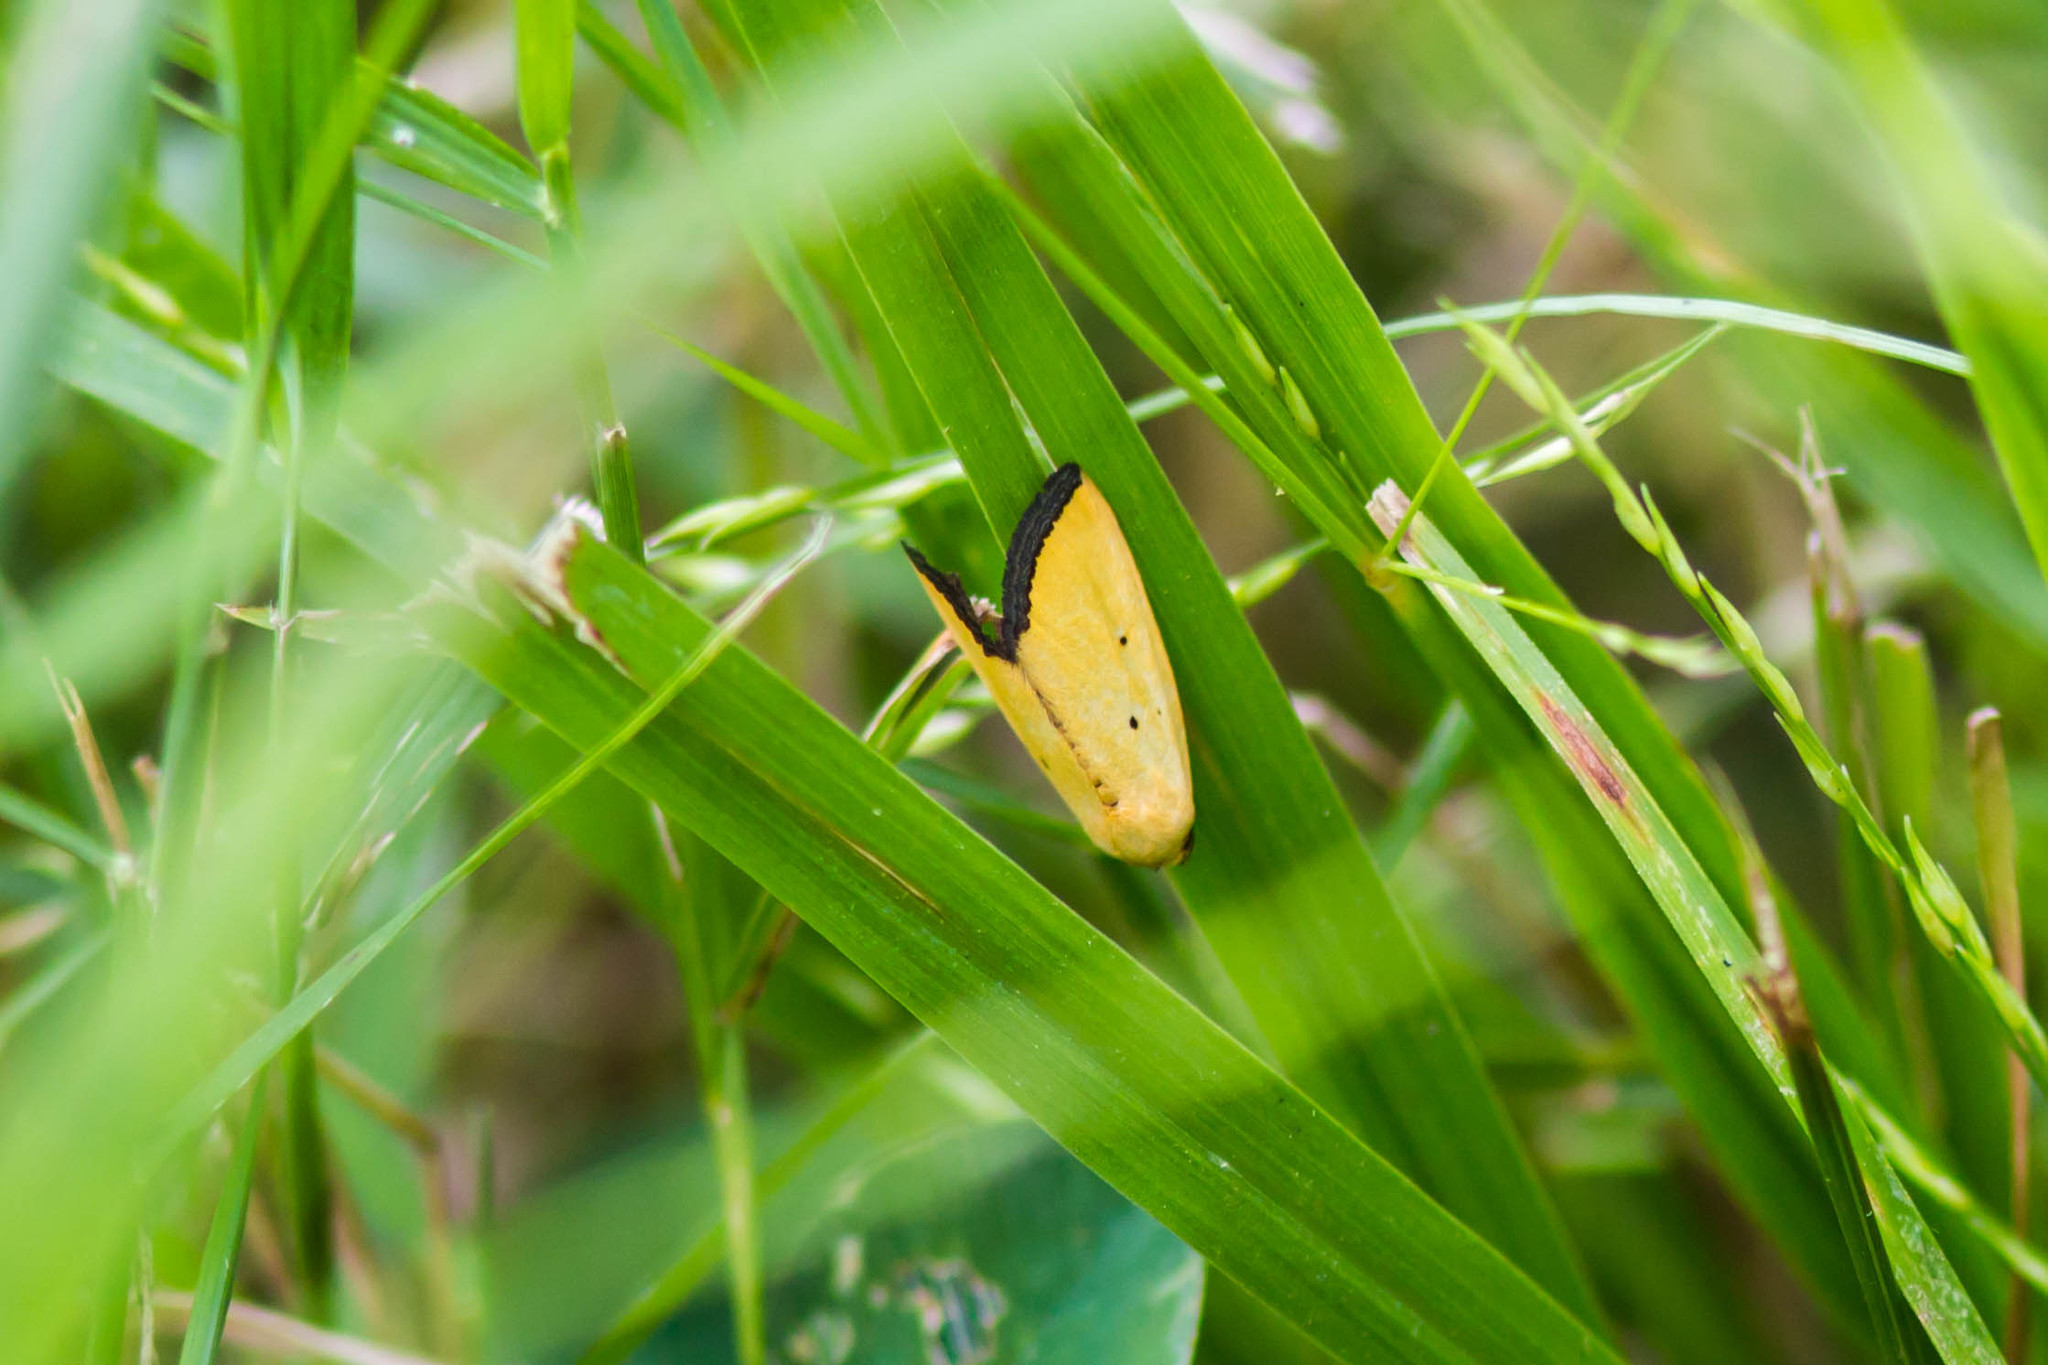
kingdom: Animalia
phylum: Arthropoda
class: Insecta
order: Lepidoptera
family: Noctuidae
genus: Marimatha
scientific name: Marimatha nigrofimbria
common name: Black-bordered lemon moth
